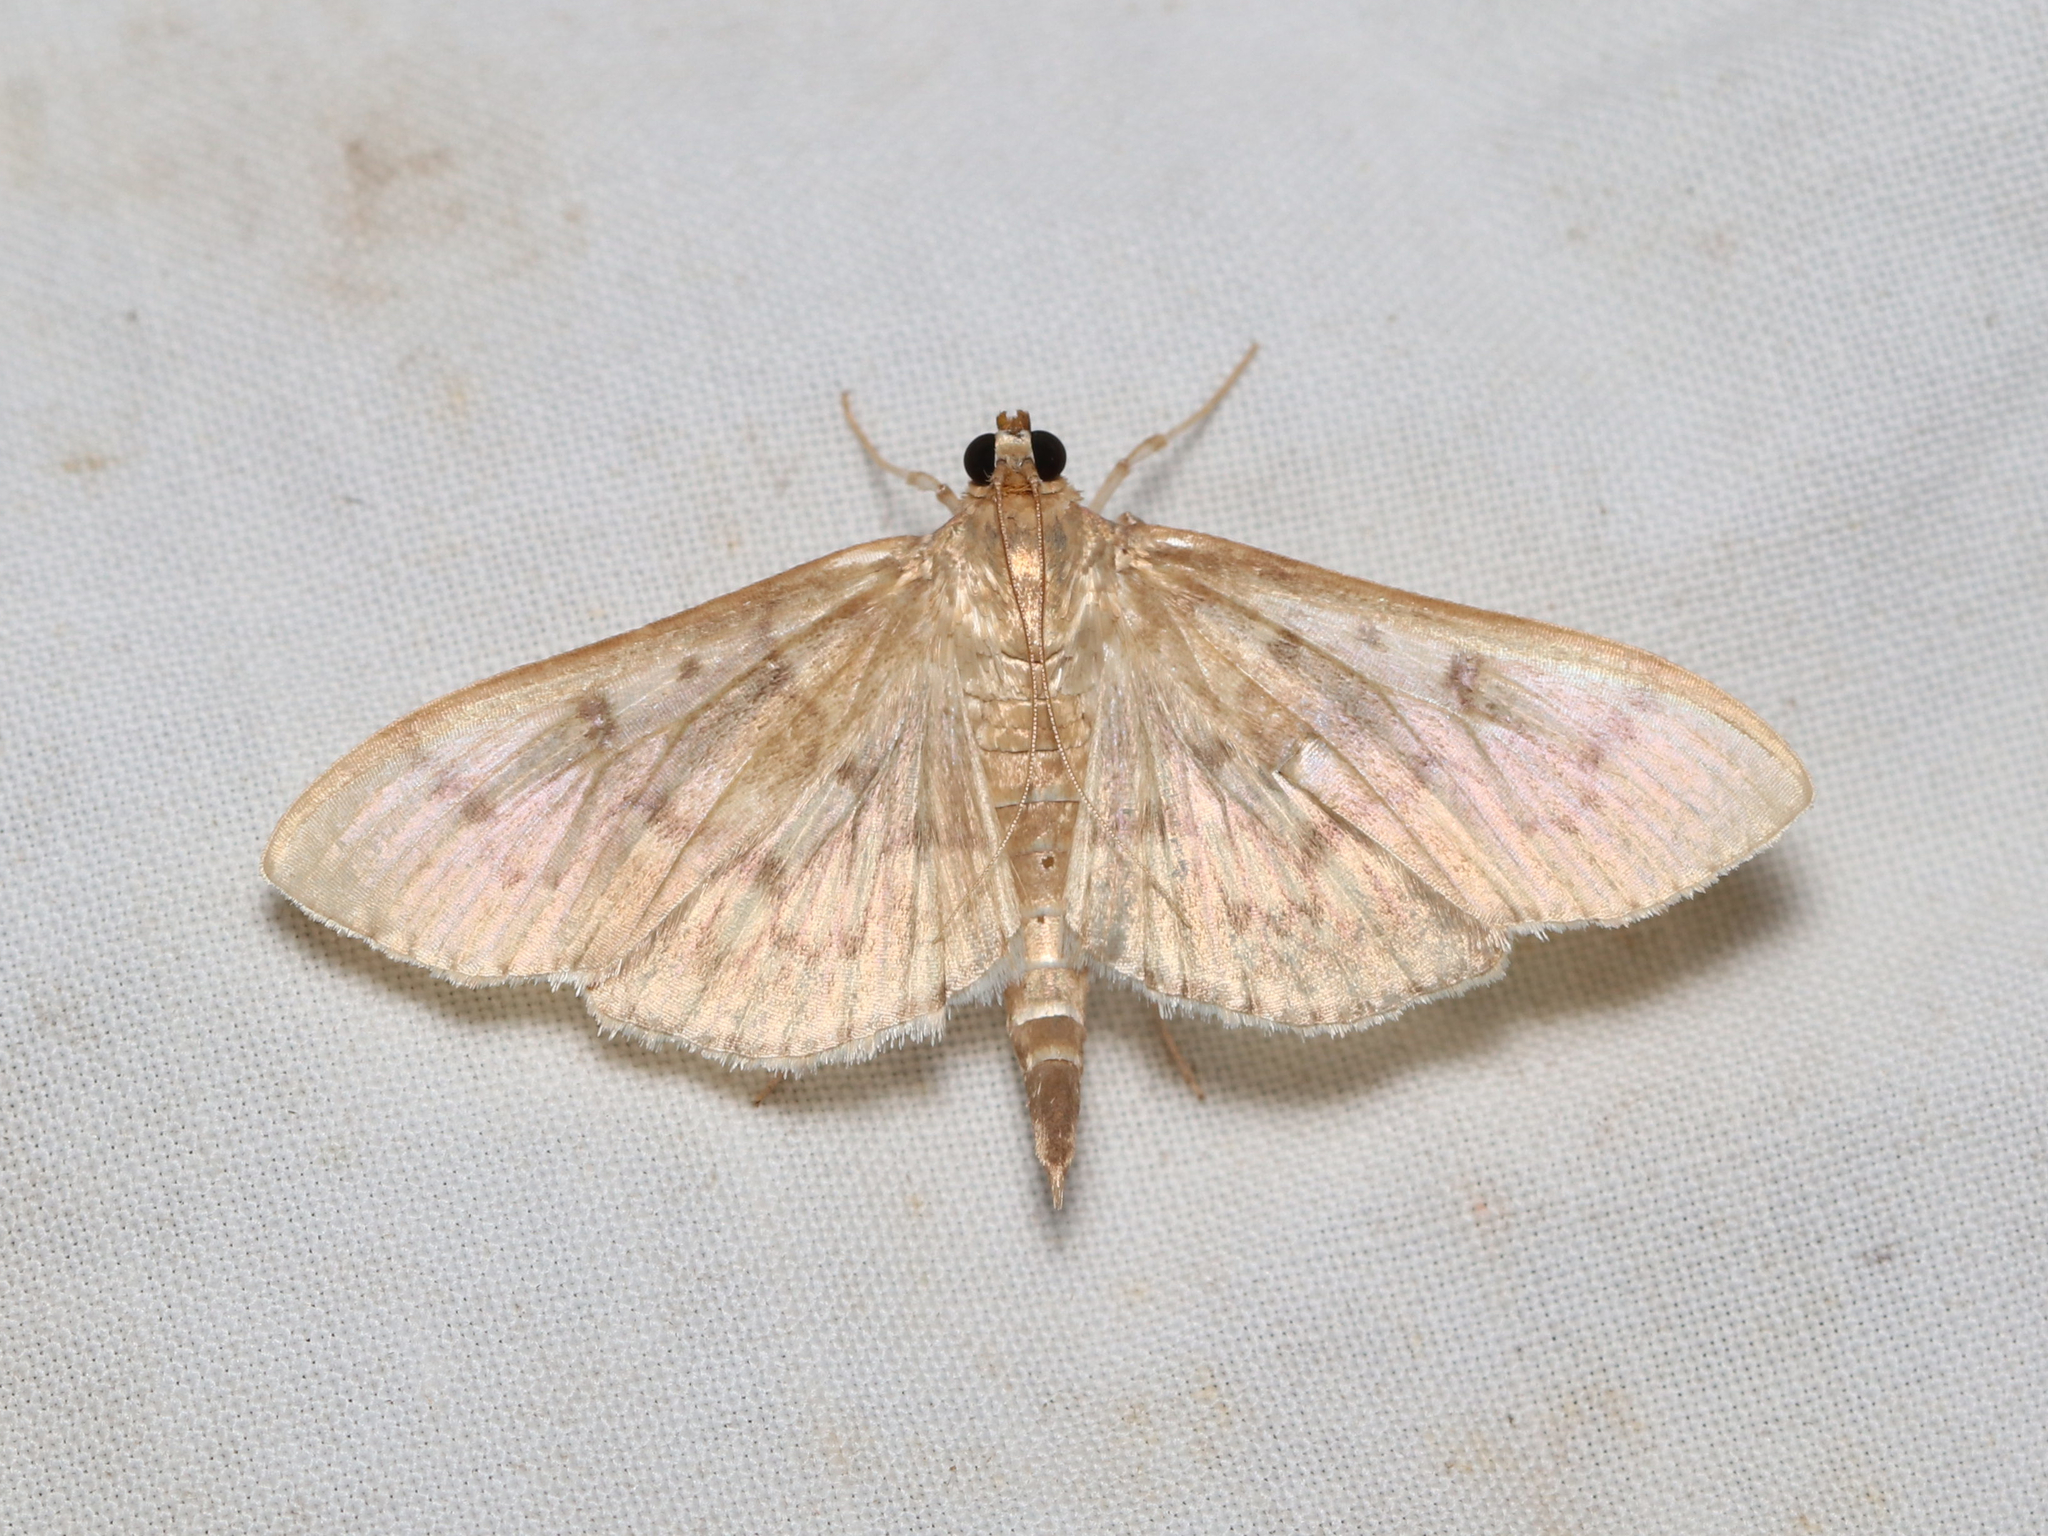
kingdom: Animalia
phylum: Arthropoda
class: Insecta
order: Lepidoptera
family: Crambidae
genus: Herpetogramma
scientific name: Herpetogramma aquilonalis
